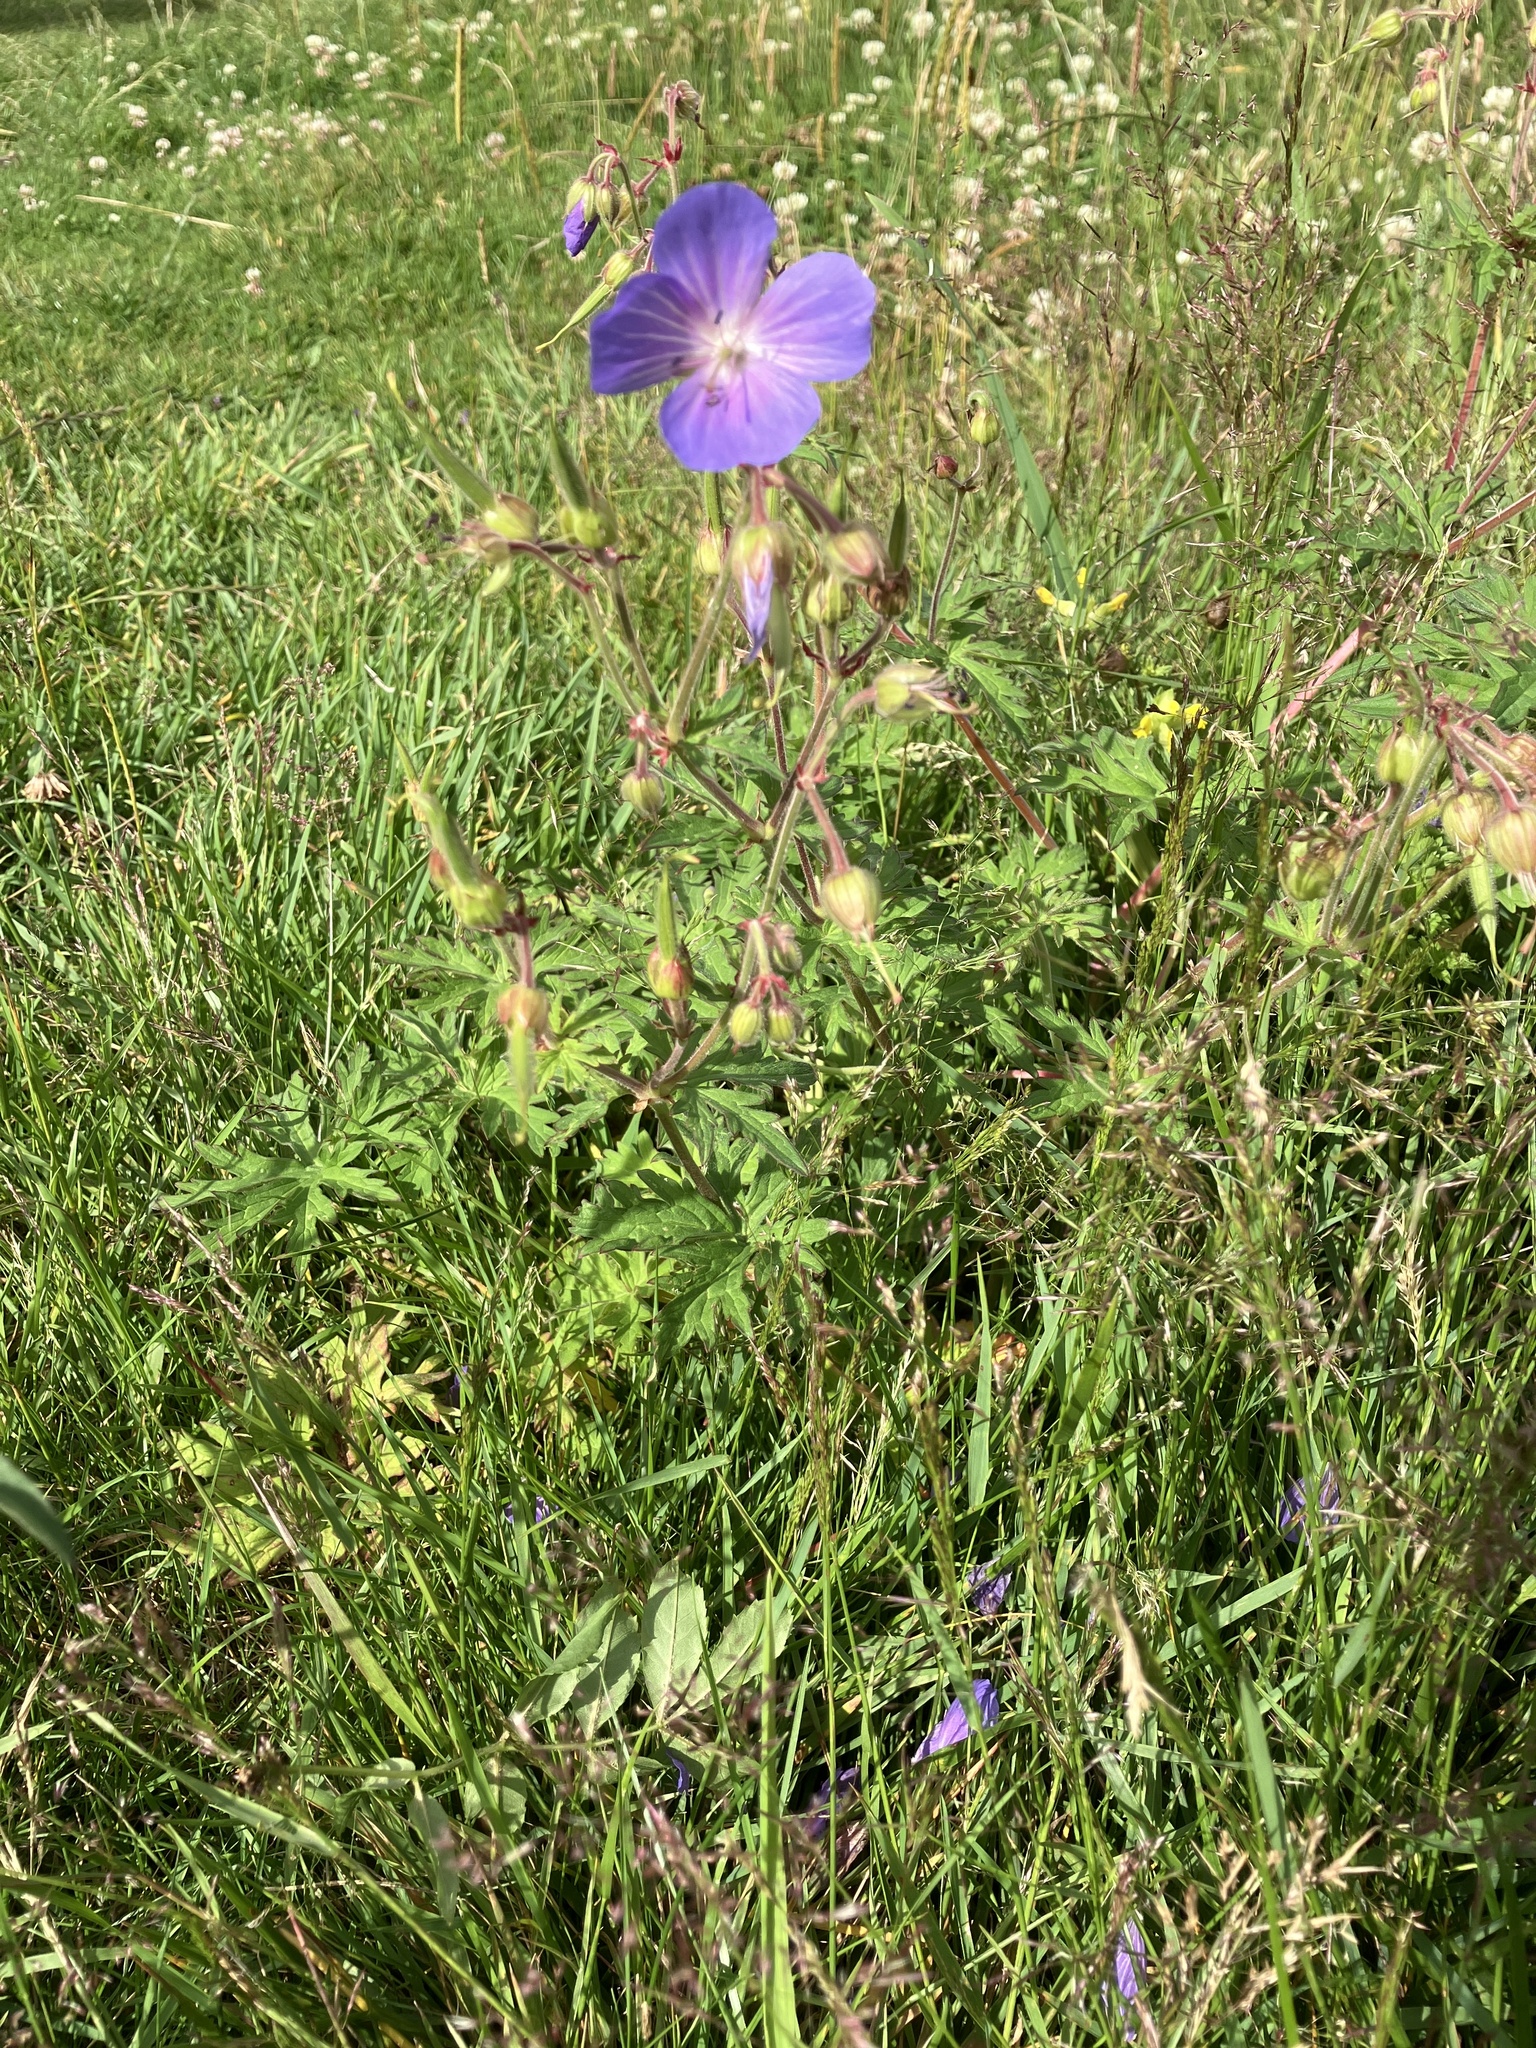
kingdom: Plantae
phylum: Tracheophyta
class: Magnoliopsida
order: Geraniales
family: Geraniaceae
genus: Geranium
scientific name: Geranium pratense
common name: Meadow crane's-bill
